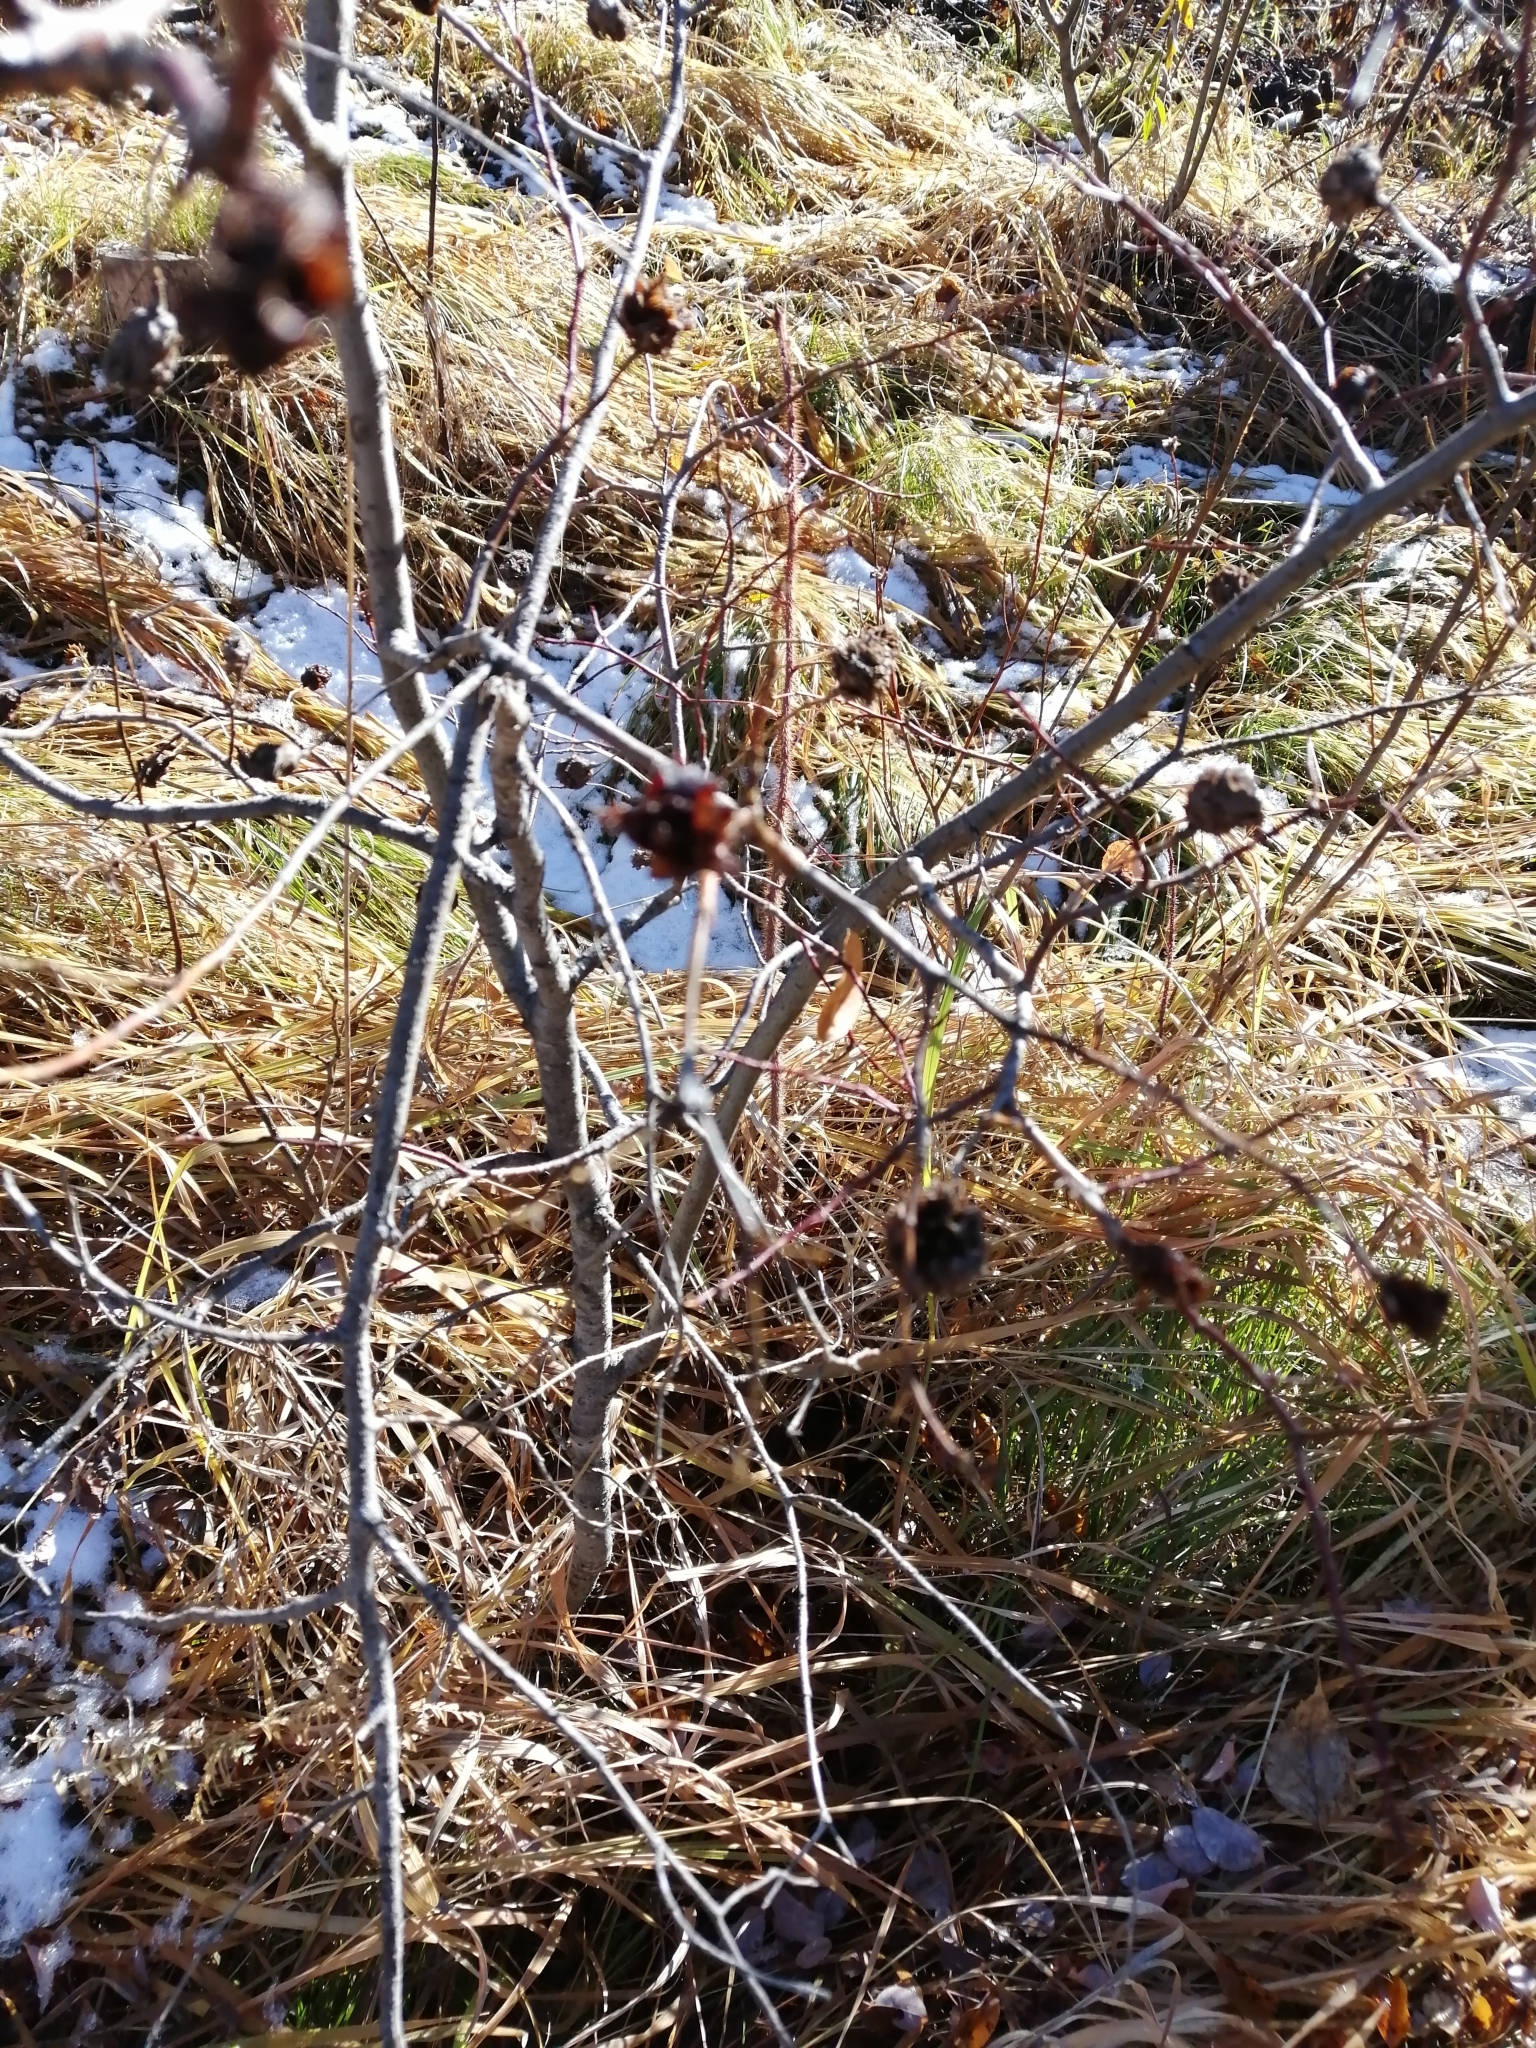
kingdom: Animalia
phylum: Arthropoda
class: Insecta
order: Diptera
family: Cecidomyiidae
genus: Rabdophaga
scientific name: Rabdophaga rosaria
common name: Willow rose gall midge
